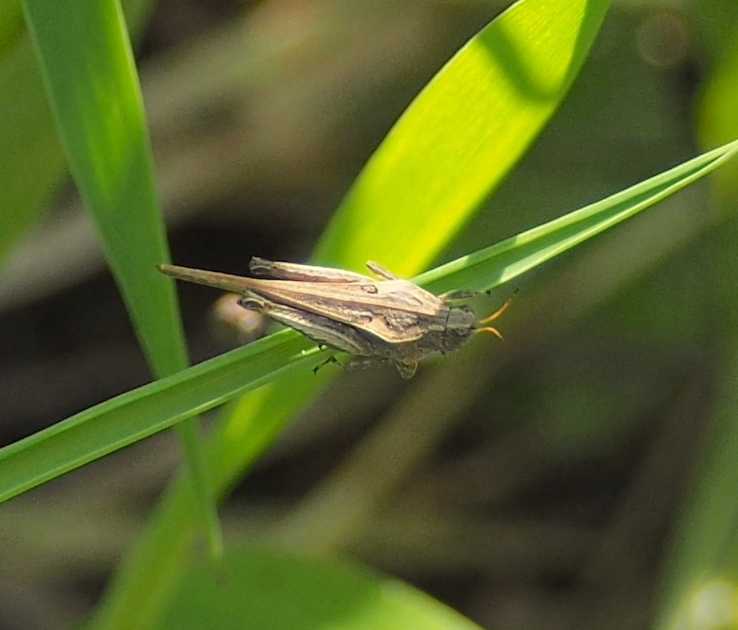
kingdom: Animalia
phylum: Arthropoda
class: Insecta
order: Orthoptera
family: Tetrigidae
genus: Tetrix
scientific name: Tetrix subulata
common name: Slender ground-hopper
